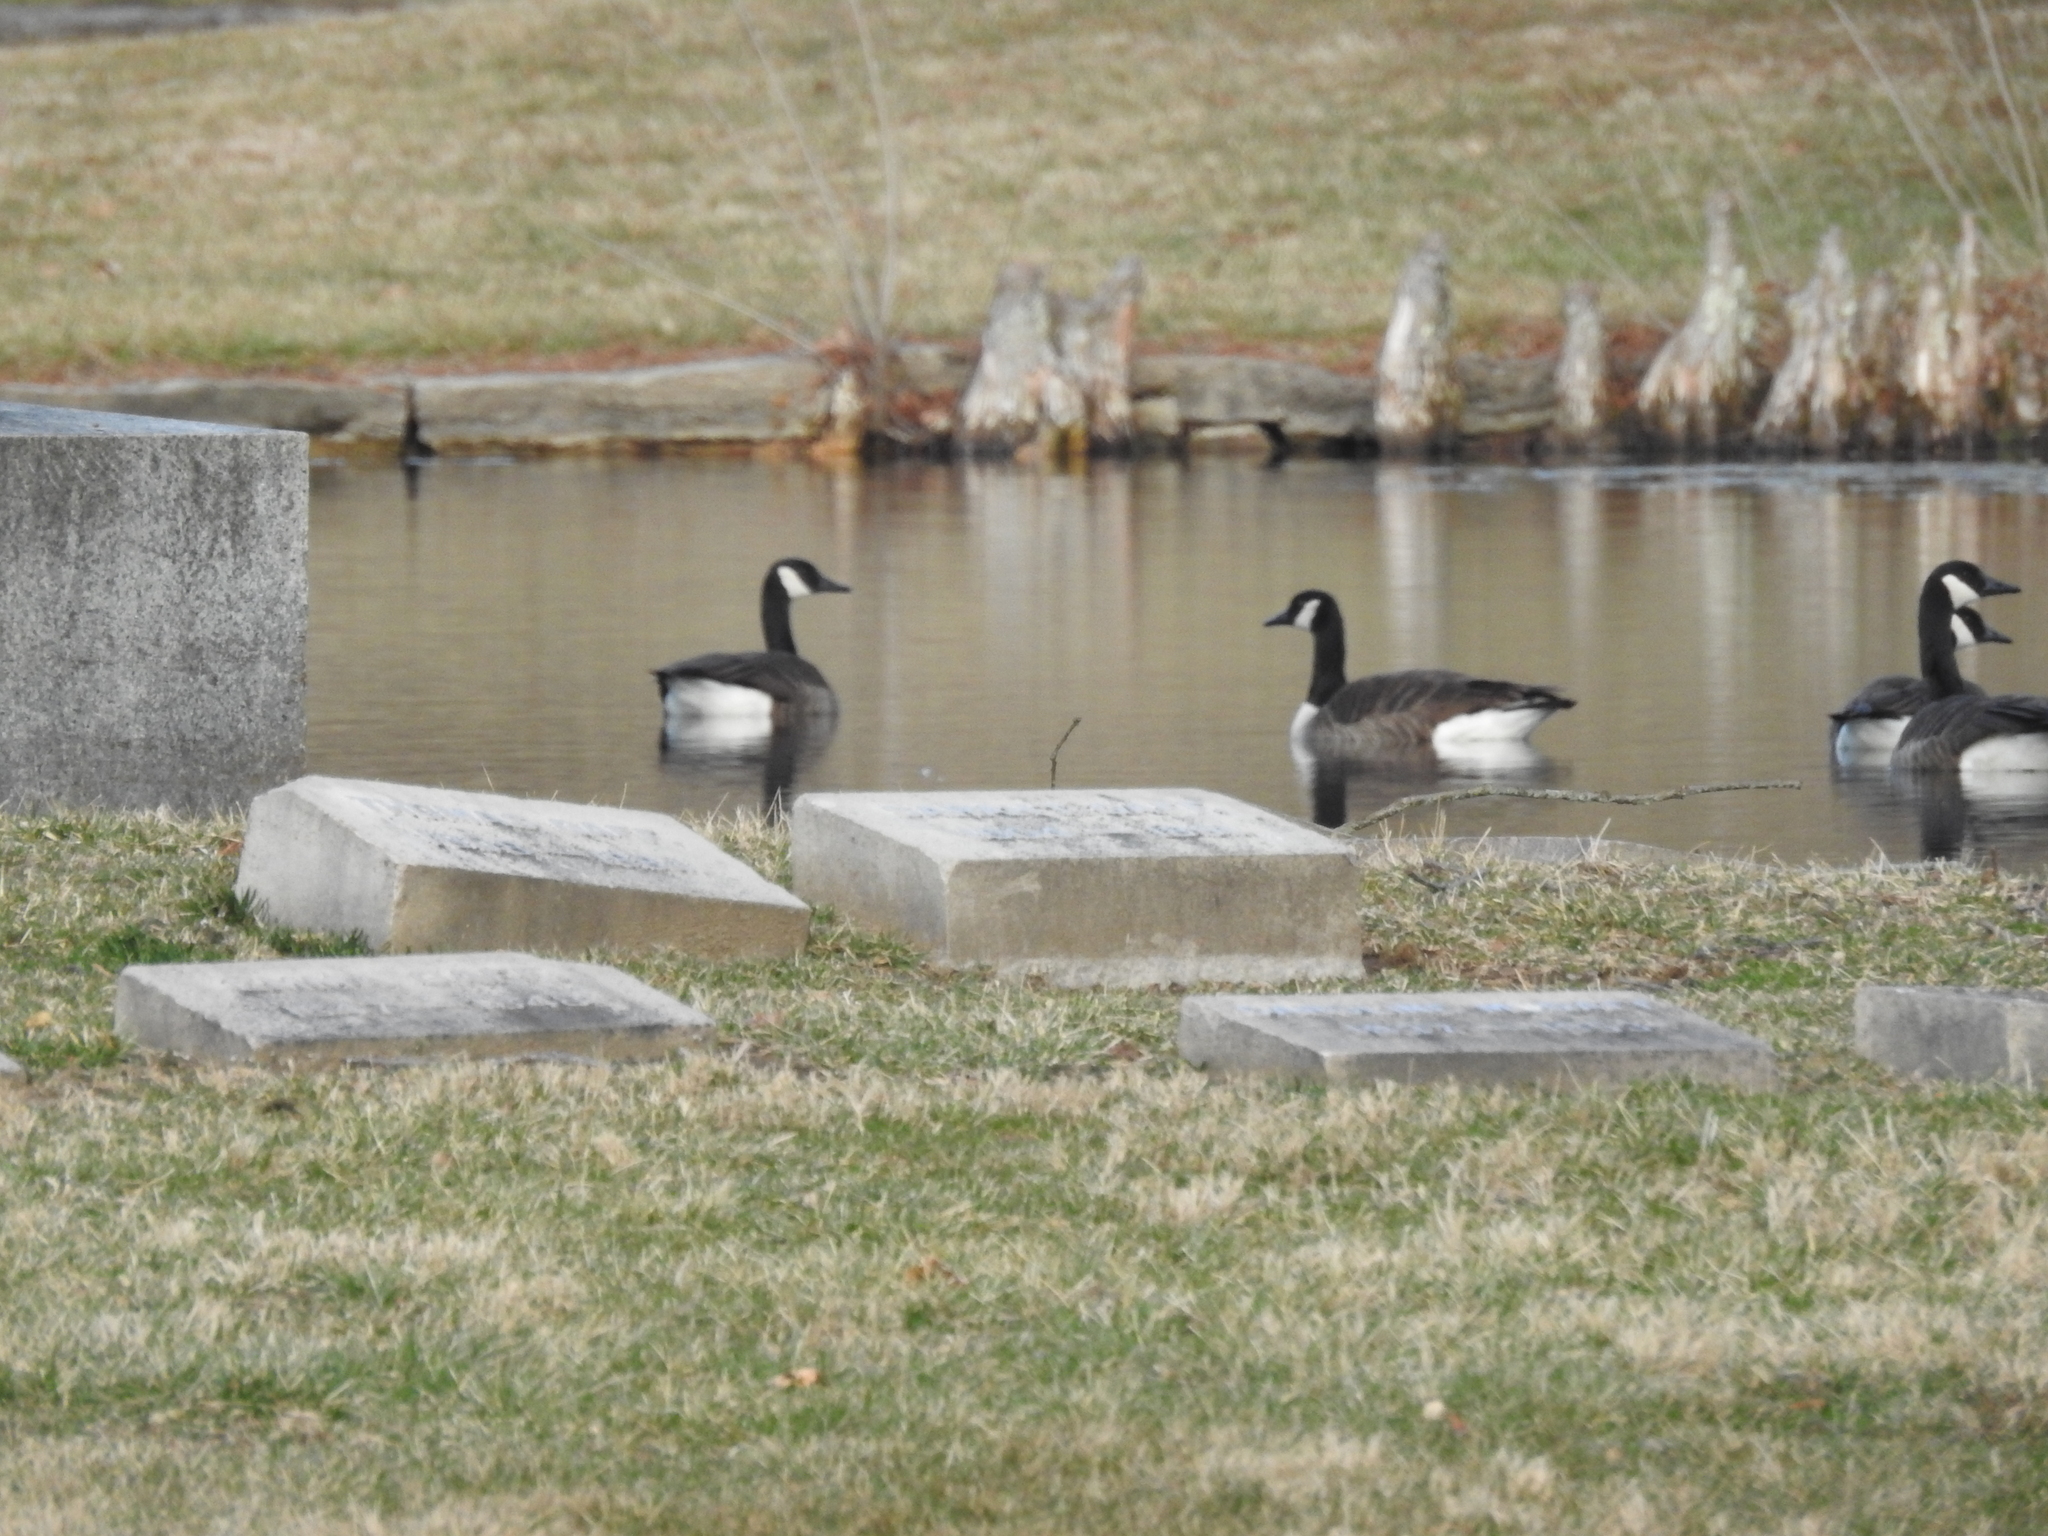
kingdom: Animalia
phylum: Chordata
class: Aves
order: Anseriformes
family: Anatidae
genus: Branta
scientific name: Branta canadensis
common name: Canada goose
